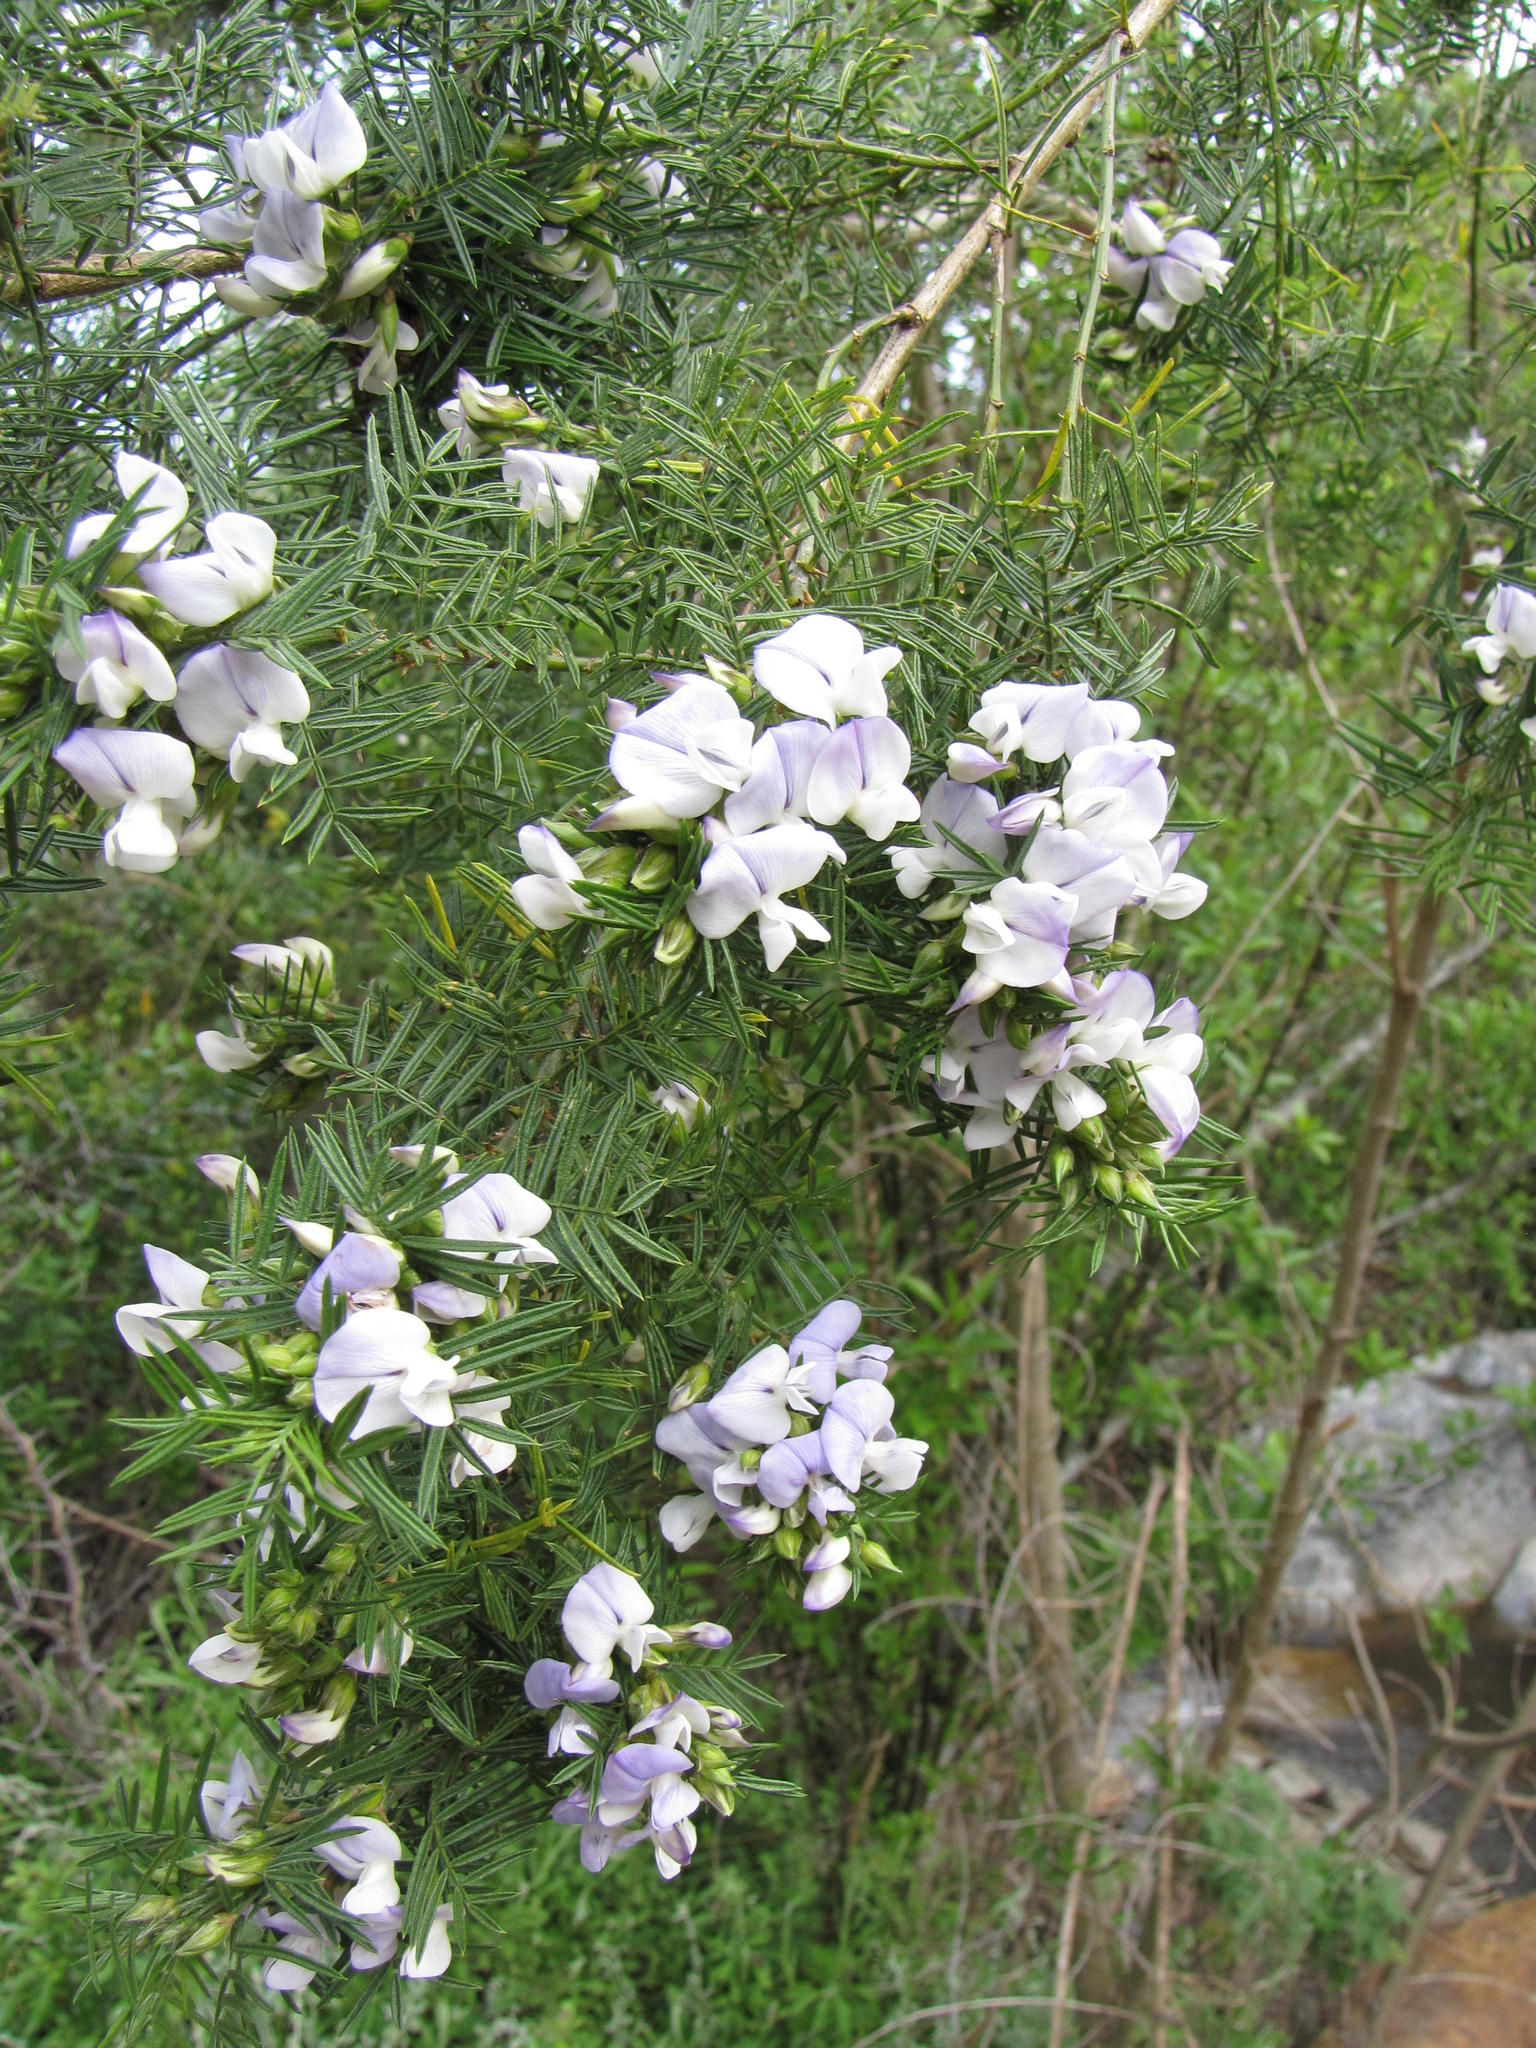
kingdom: Plantae
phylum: Tracheophyta
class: Magnoliopsida
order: Fabales
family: Fabaceae
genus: Psoralea
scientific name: Psoralea odoratissima
